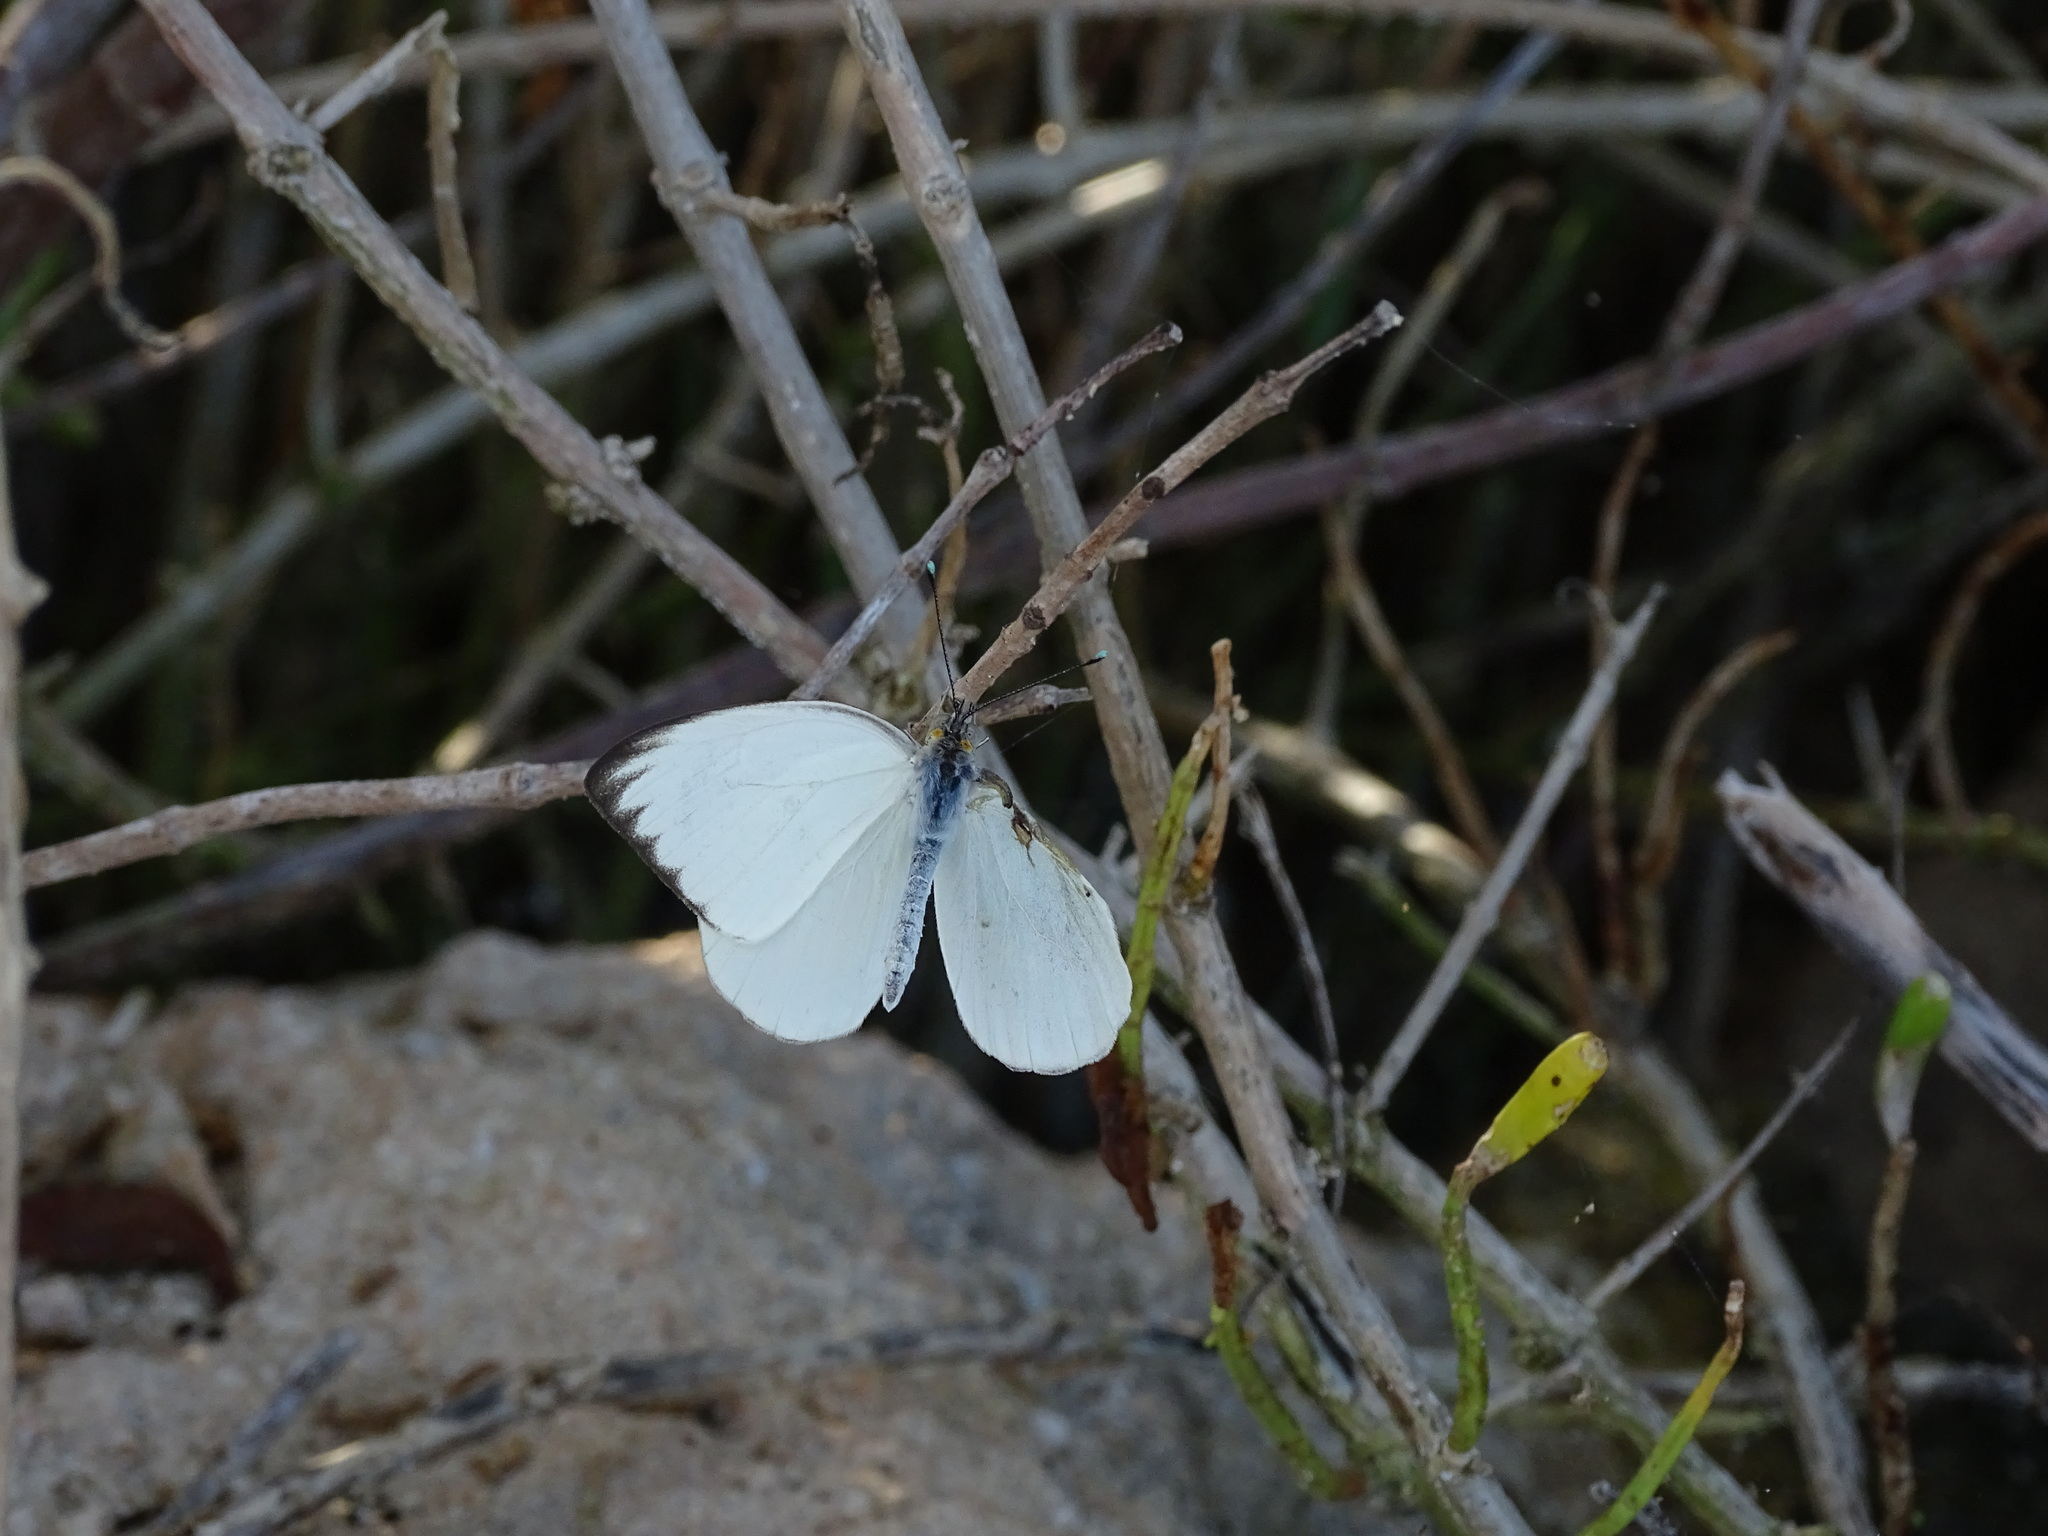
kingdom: Animalia
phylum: Arthropoda
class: Insecta
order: Lepidoptera
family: Pieridae
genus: Ascia
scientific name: Ascia monuste
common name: Great southern white
